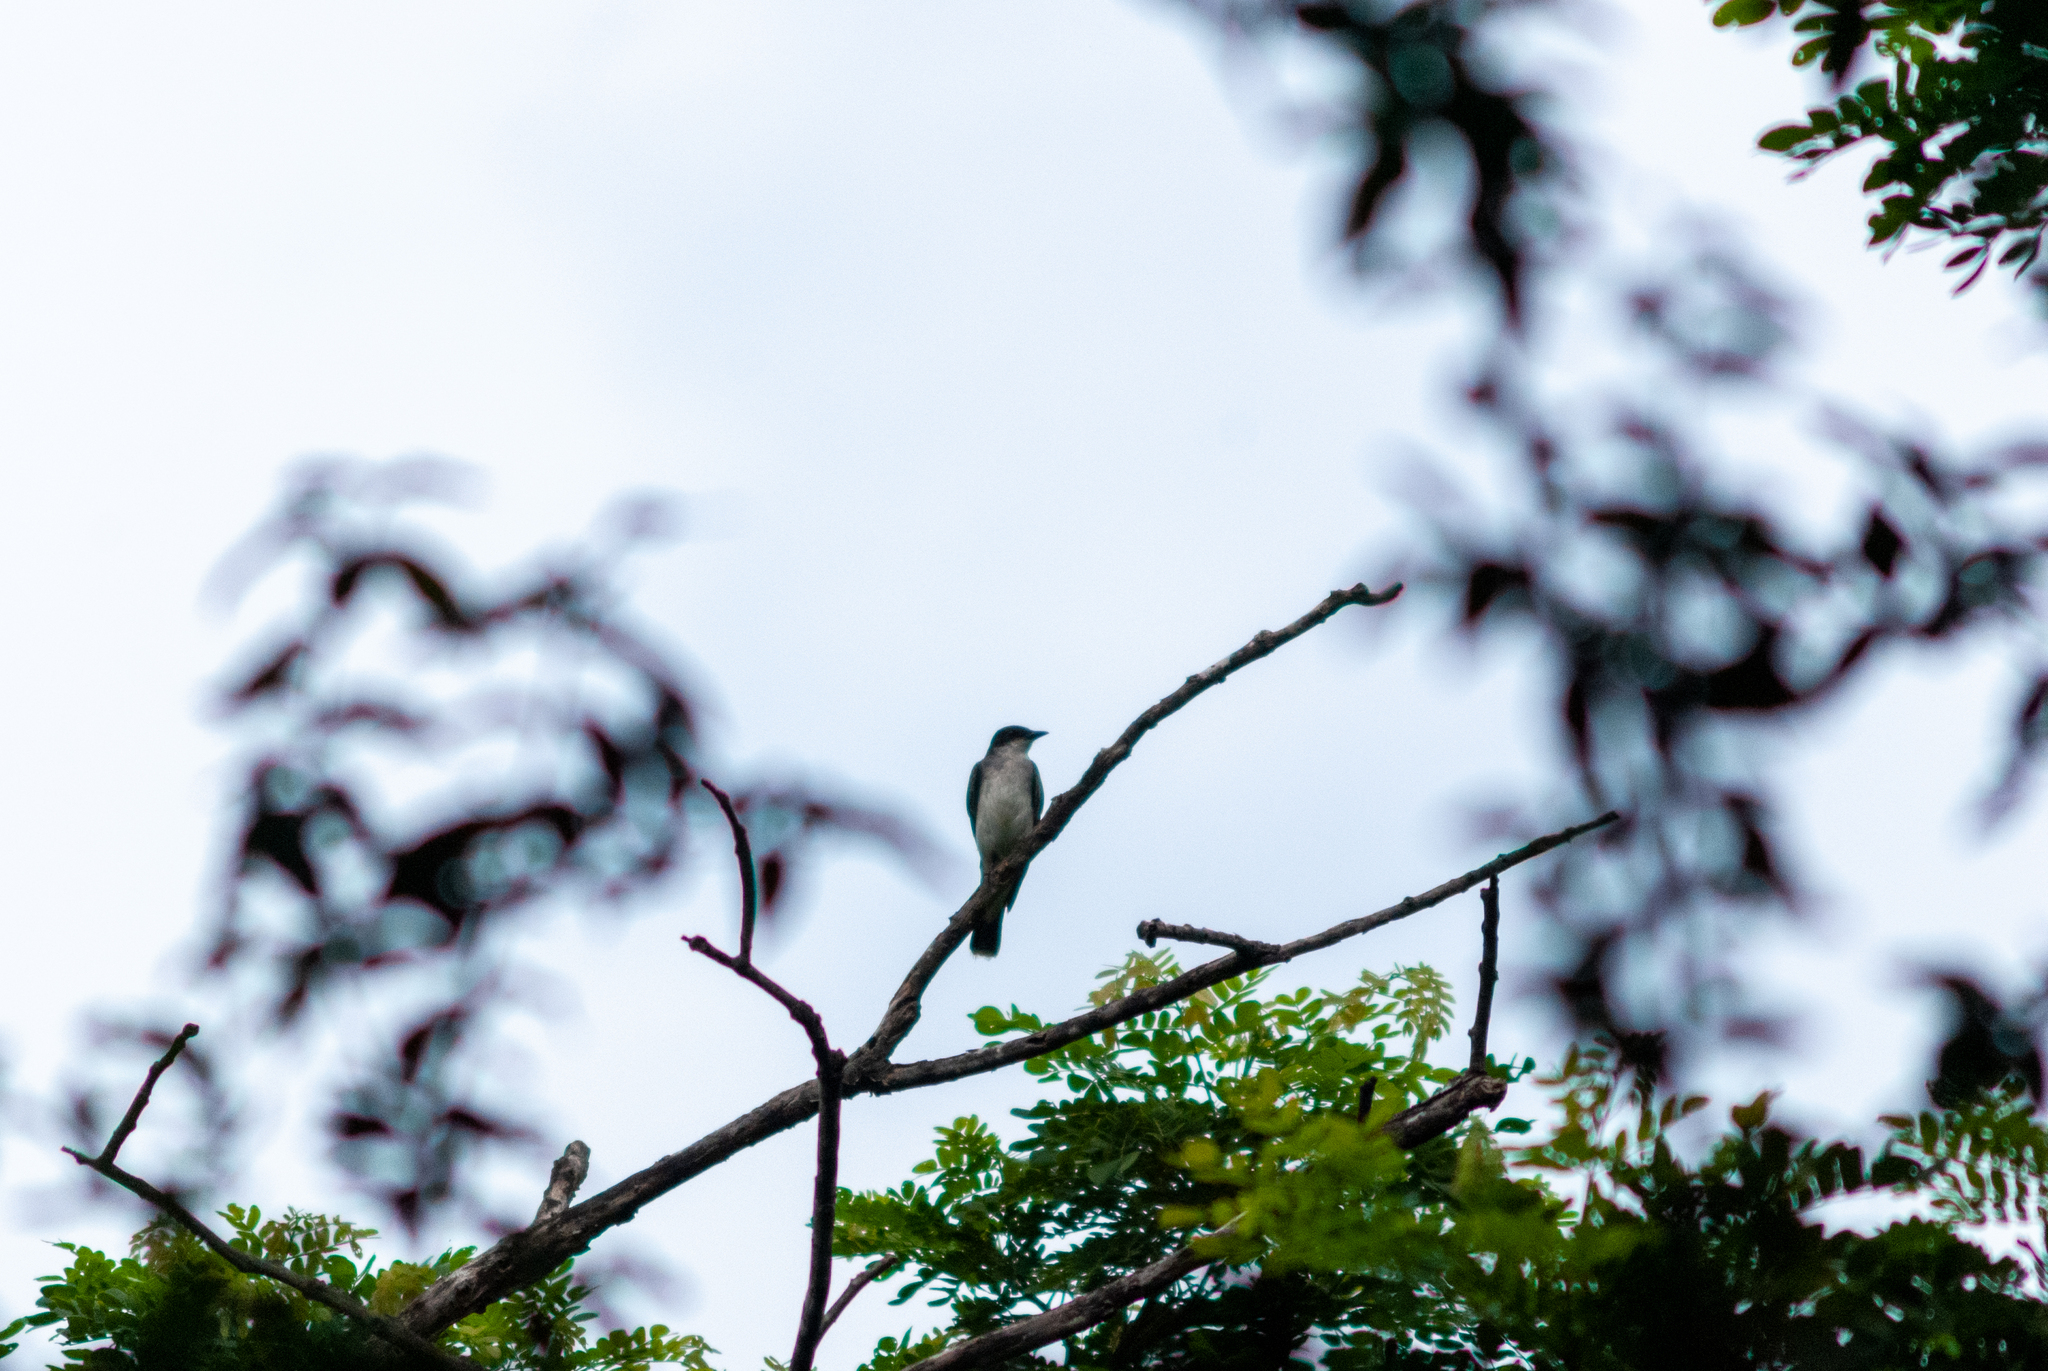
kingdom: Animalia
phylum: Chordata
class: Aves
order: Passeriformes
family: Tyrannidae
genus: Tyrannus
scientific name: Tyrannus tyrannus
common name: Eastern kingbird
